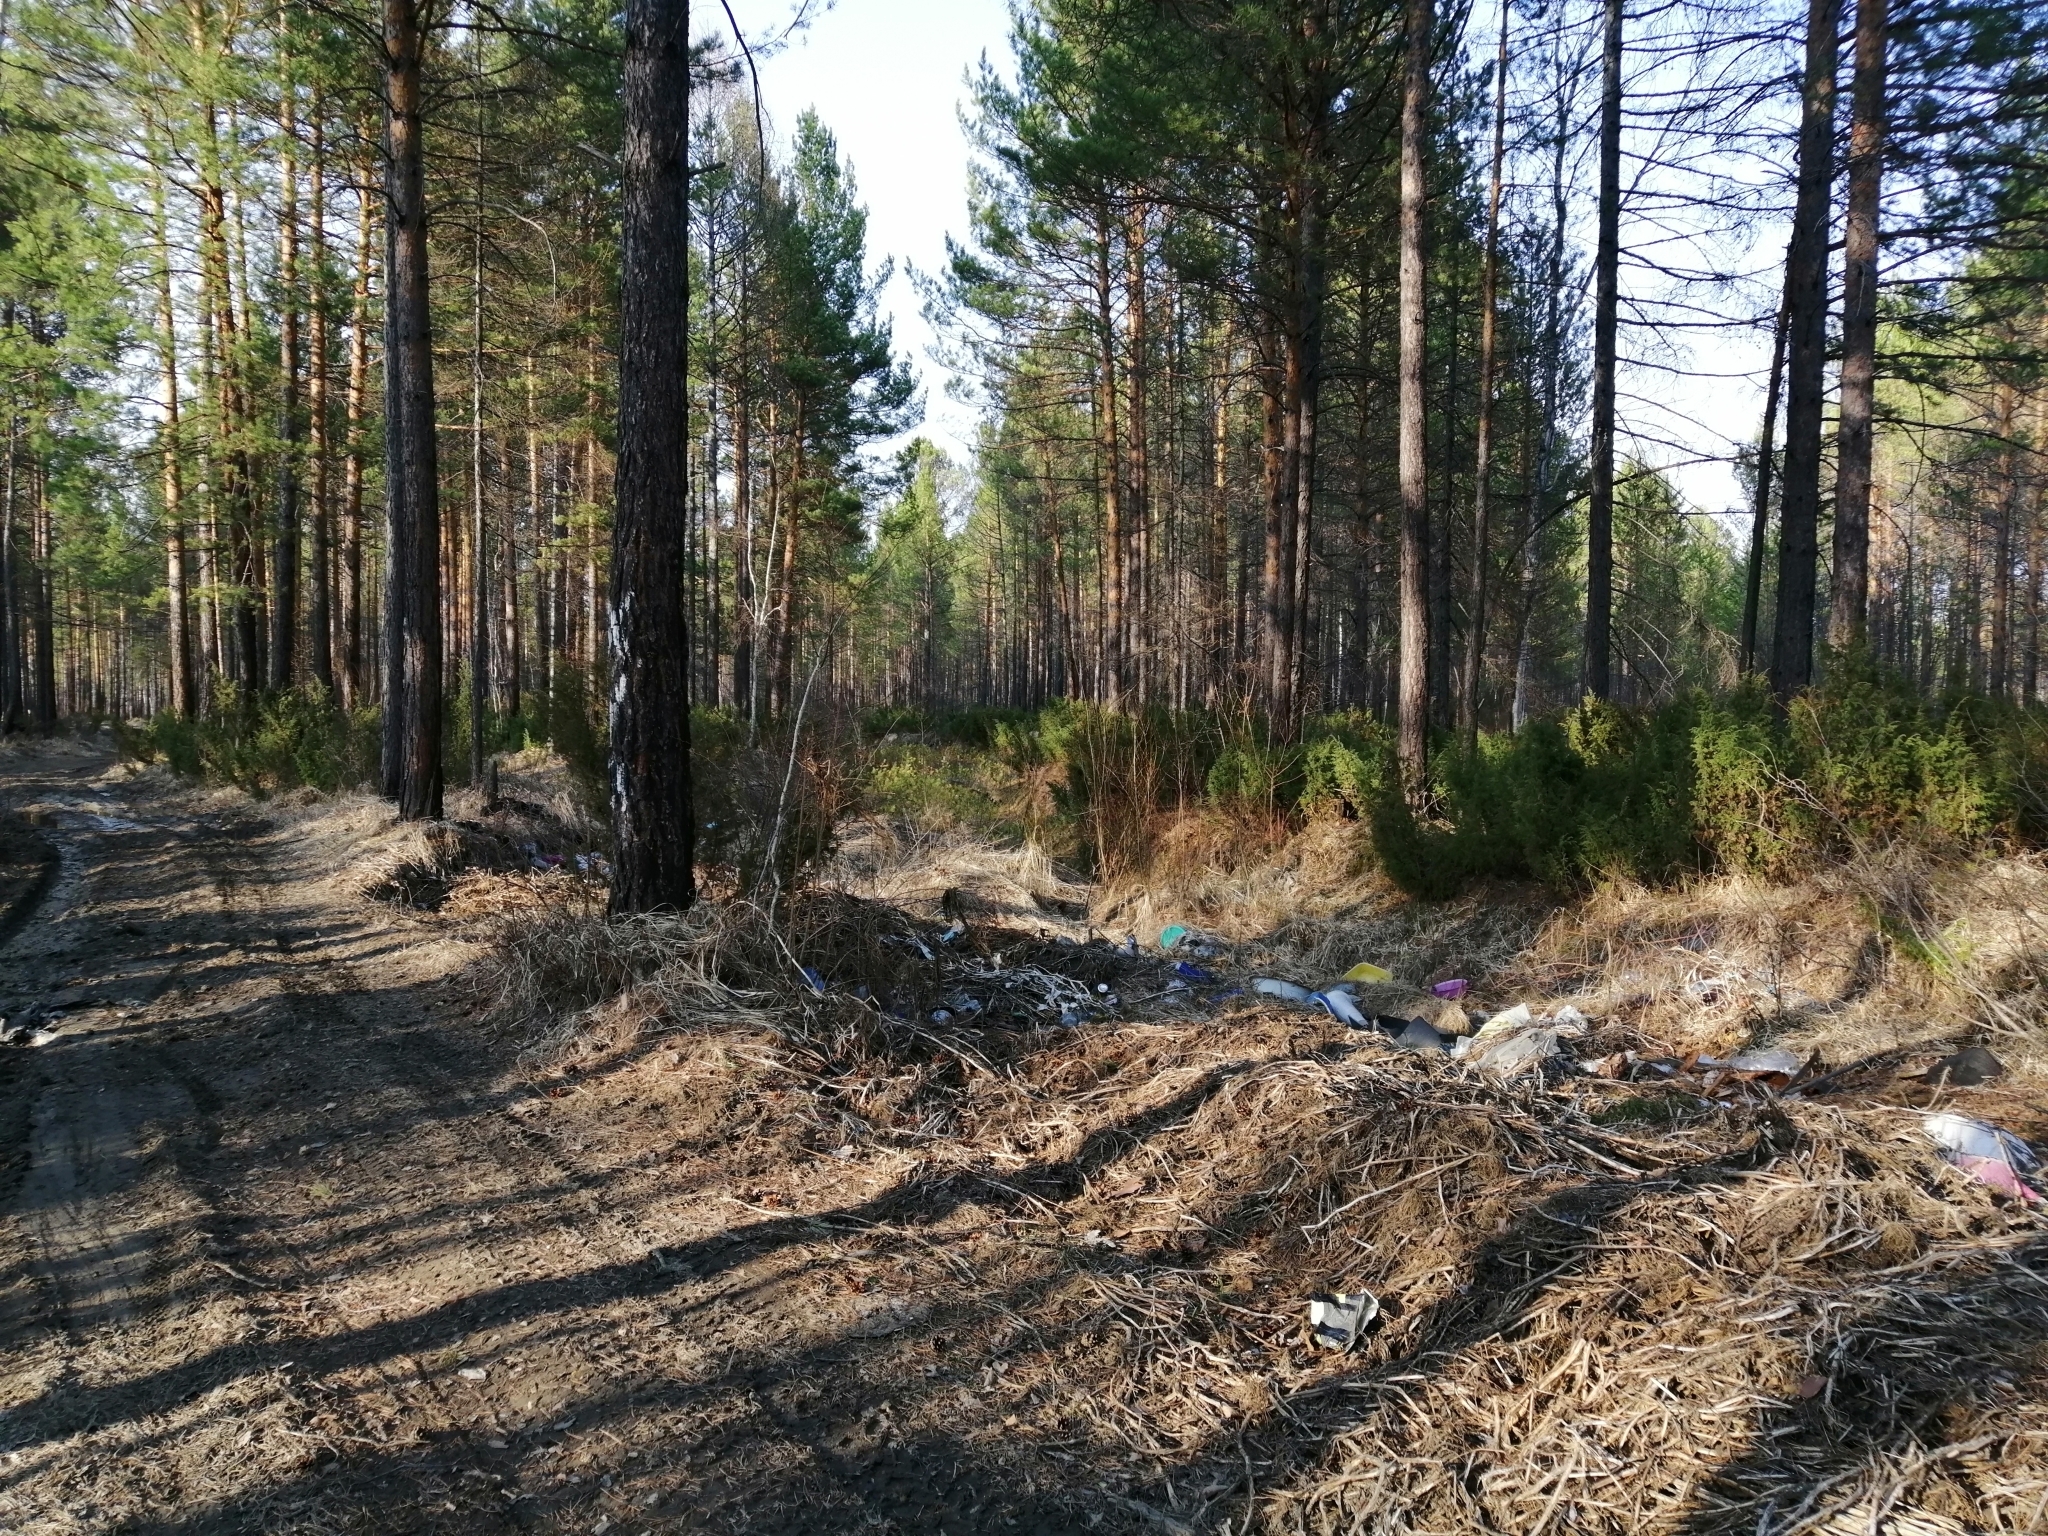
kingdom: Plantae
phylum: Tracheophyta
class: Pinopsida
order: Pinales
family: Cupressaceae
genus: Juniperus
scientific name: Juniperus communis
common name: Common juniper
